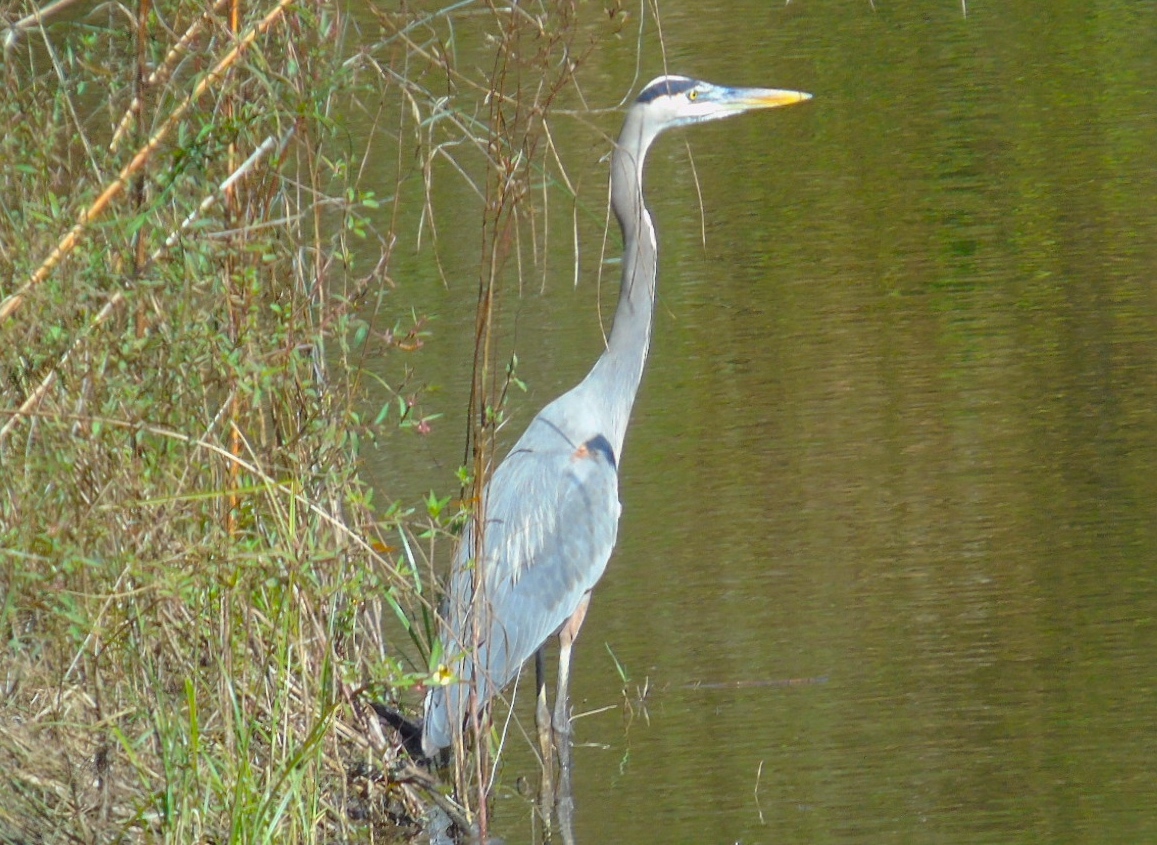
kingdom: Animalia
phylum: Chordata
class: Aves
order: Pelecaniformes
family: Ardeidae
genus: Ardea
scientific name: Ardea herodias
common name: Great blue heron
